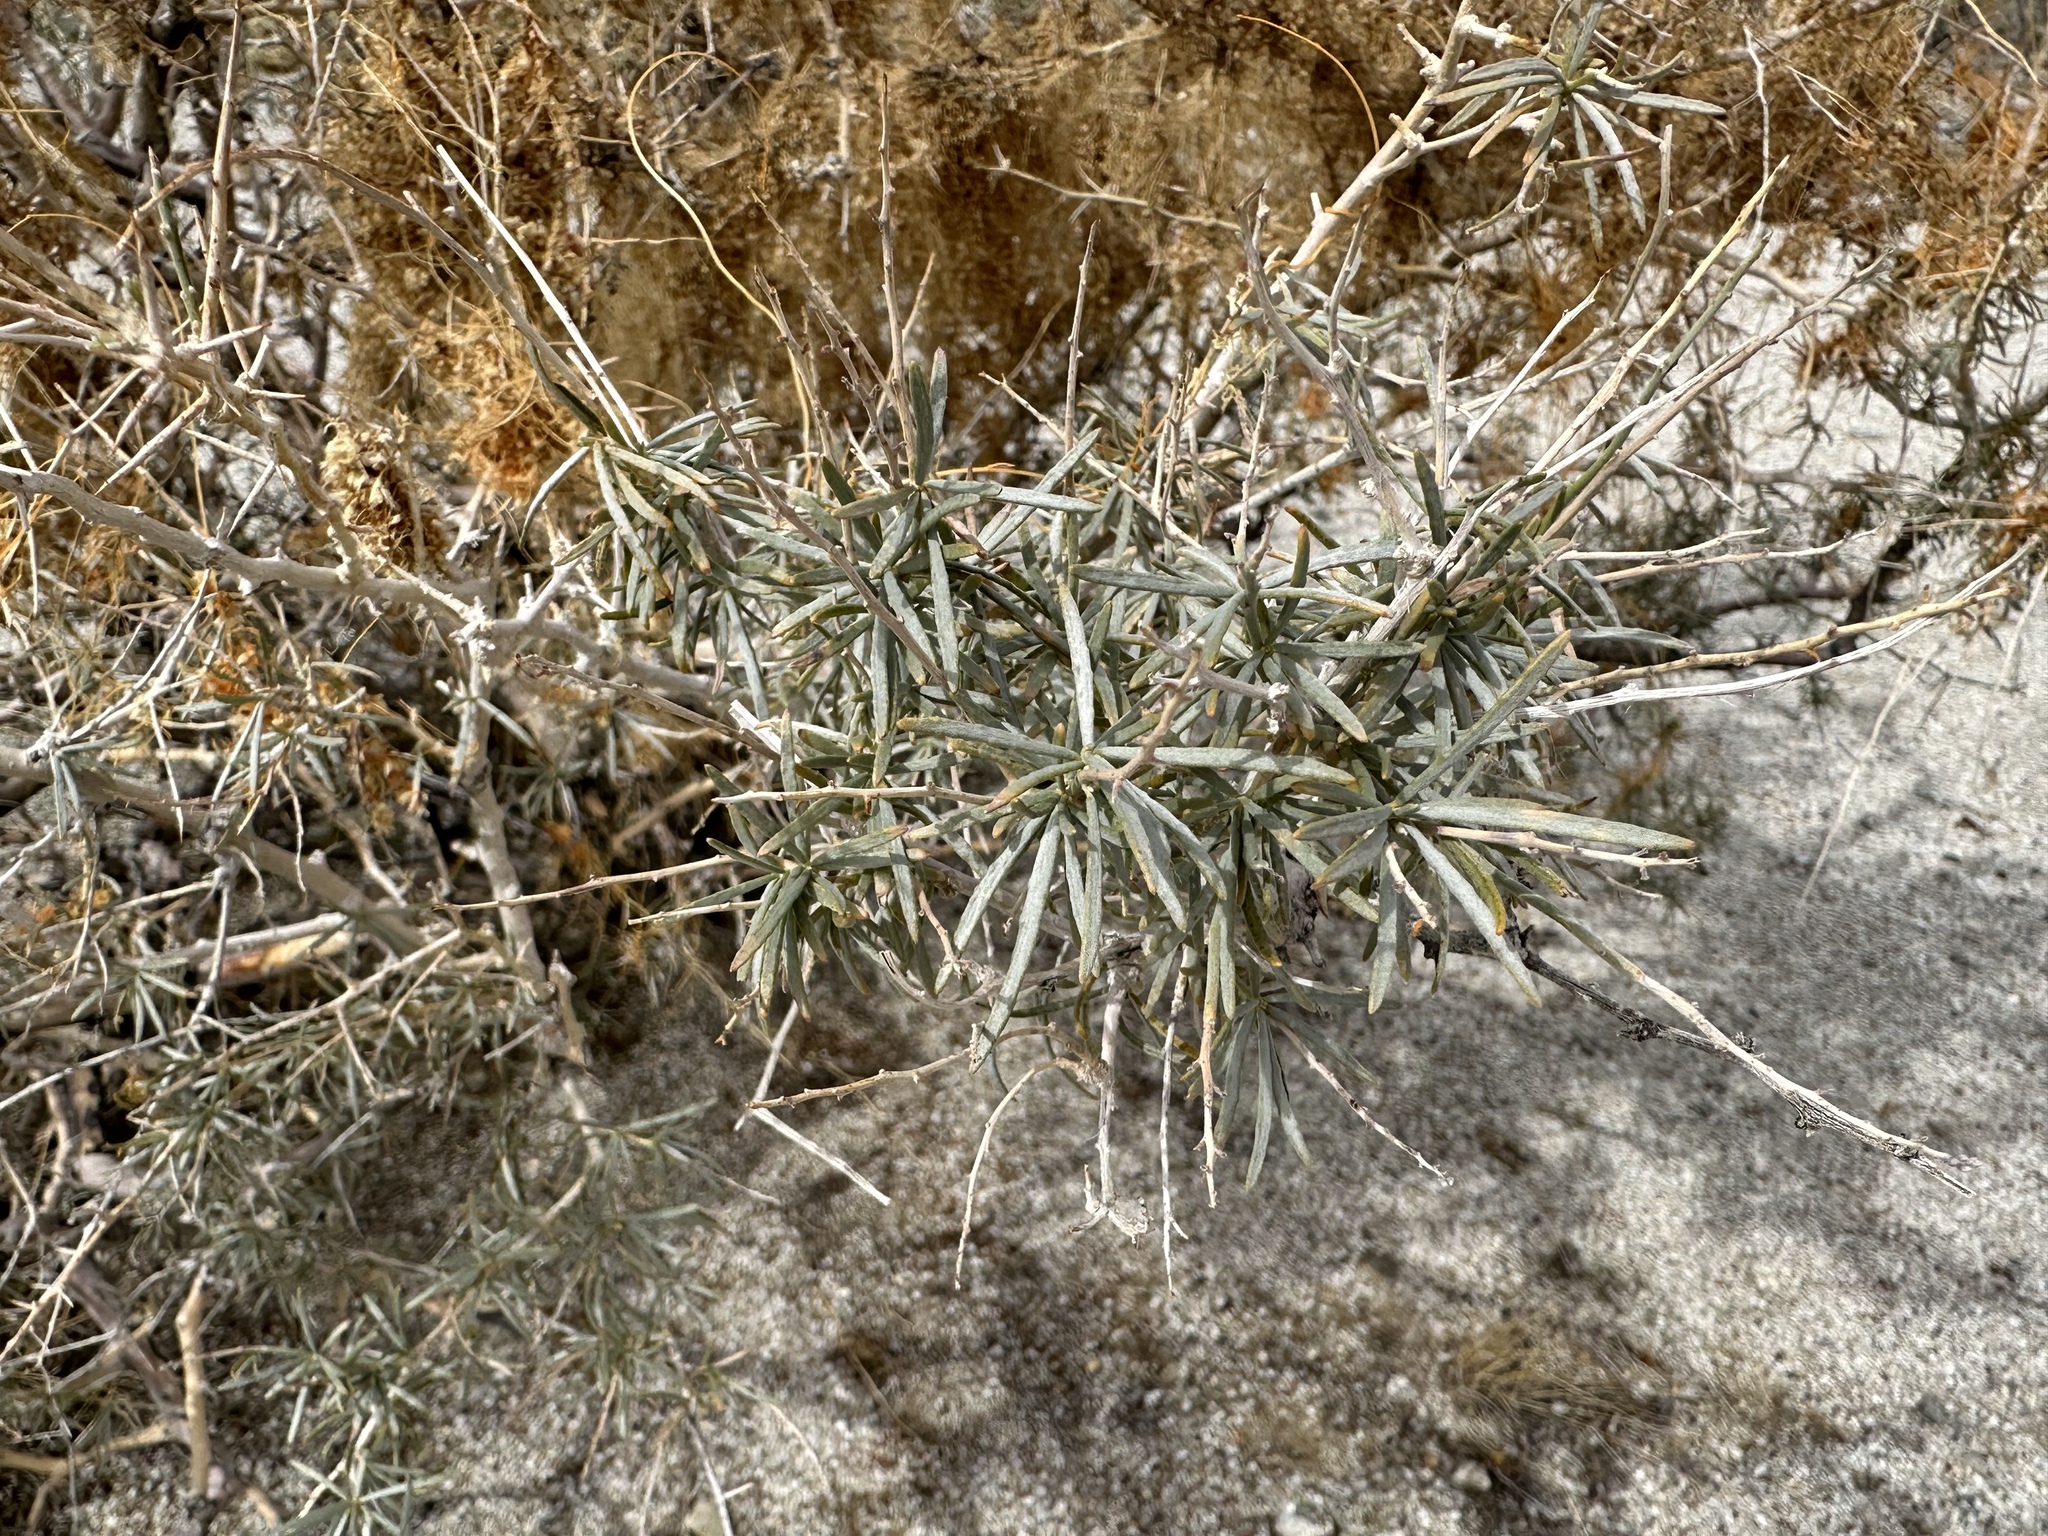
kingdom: Plantae
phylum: Tracheophyta
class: Magnoliopsida
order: Solanales
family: Convolvulaceae
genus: Cuscuta
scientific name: Cuscuta californica
